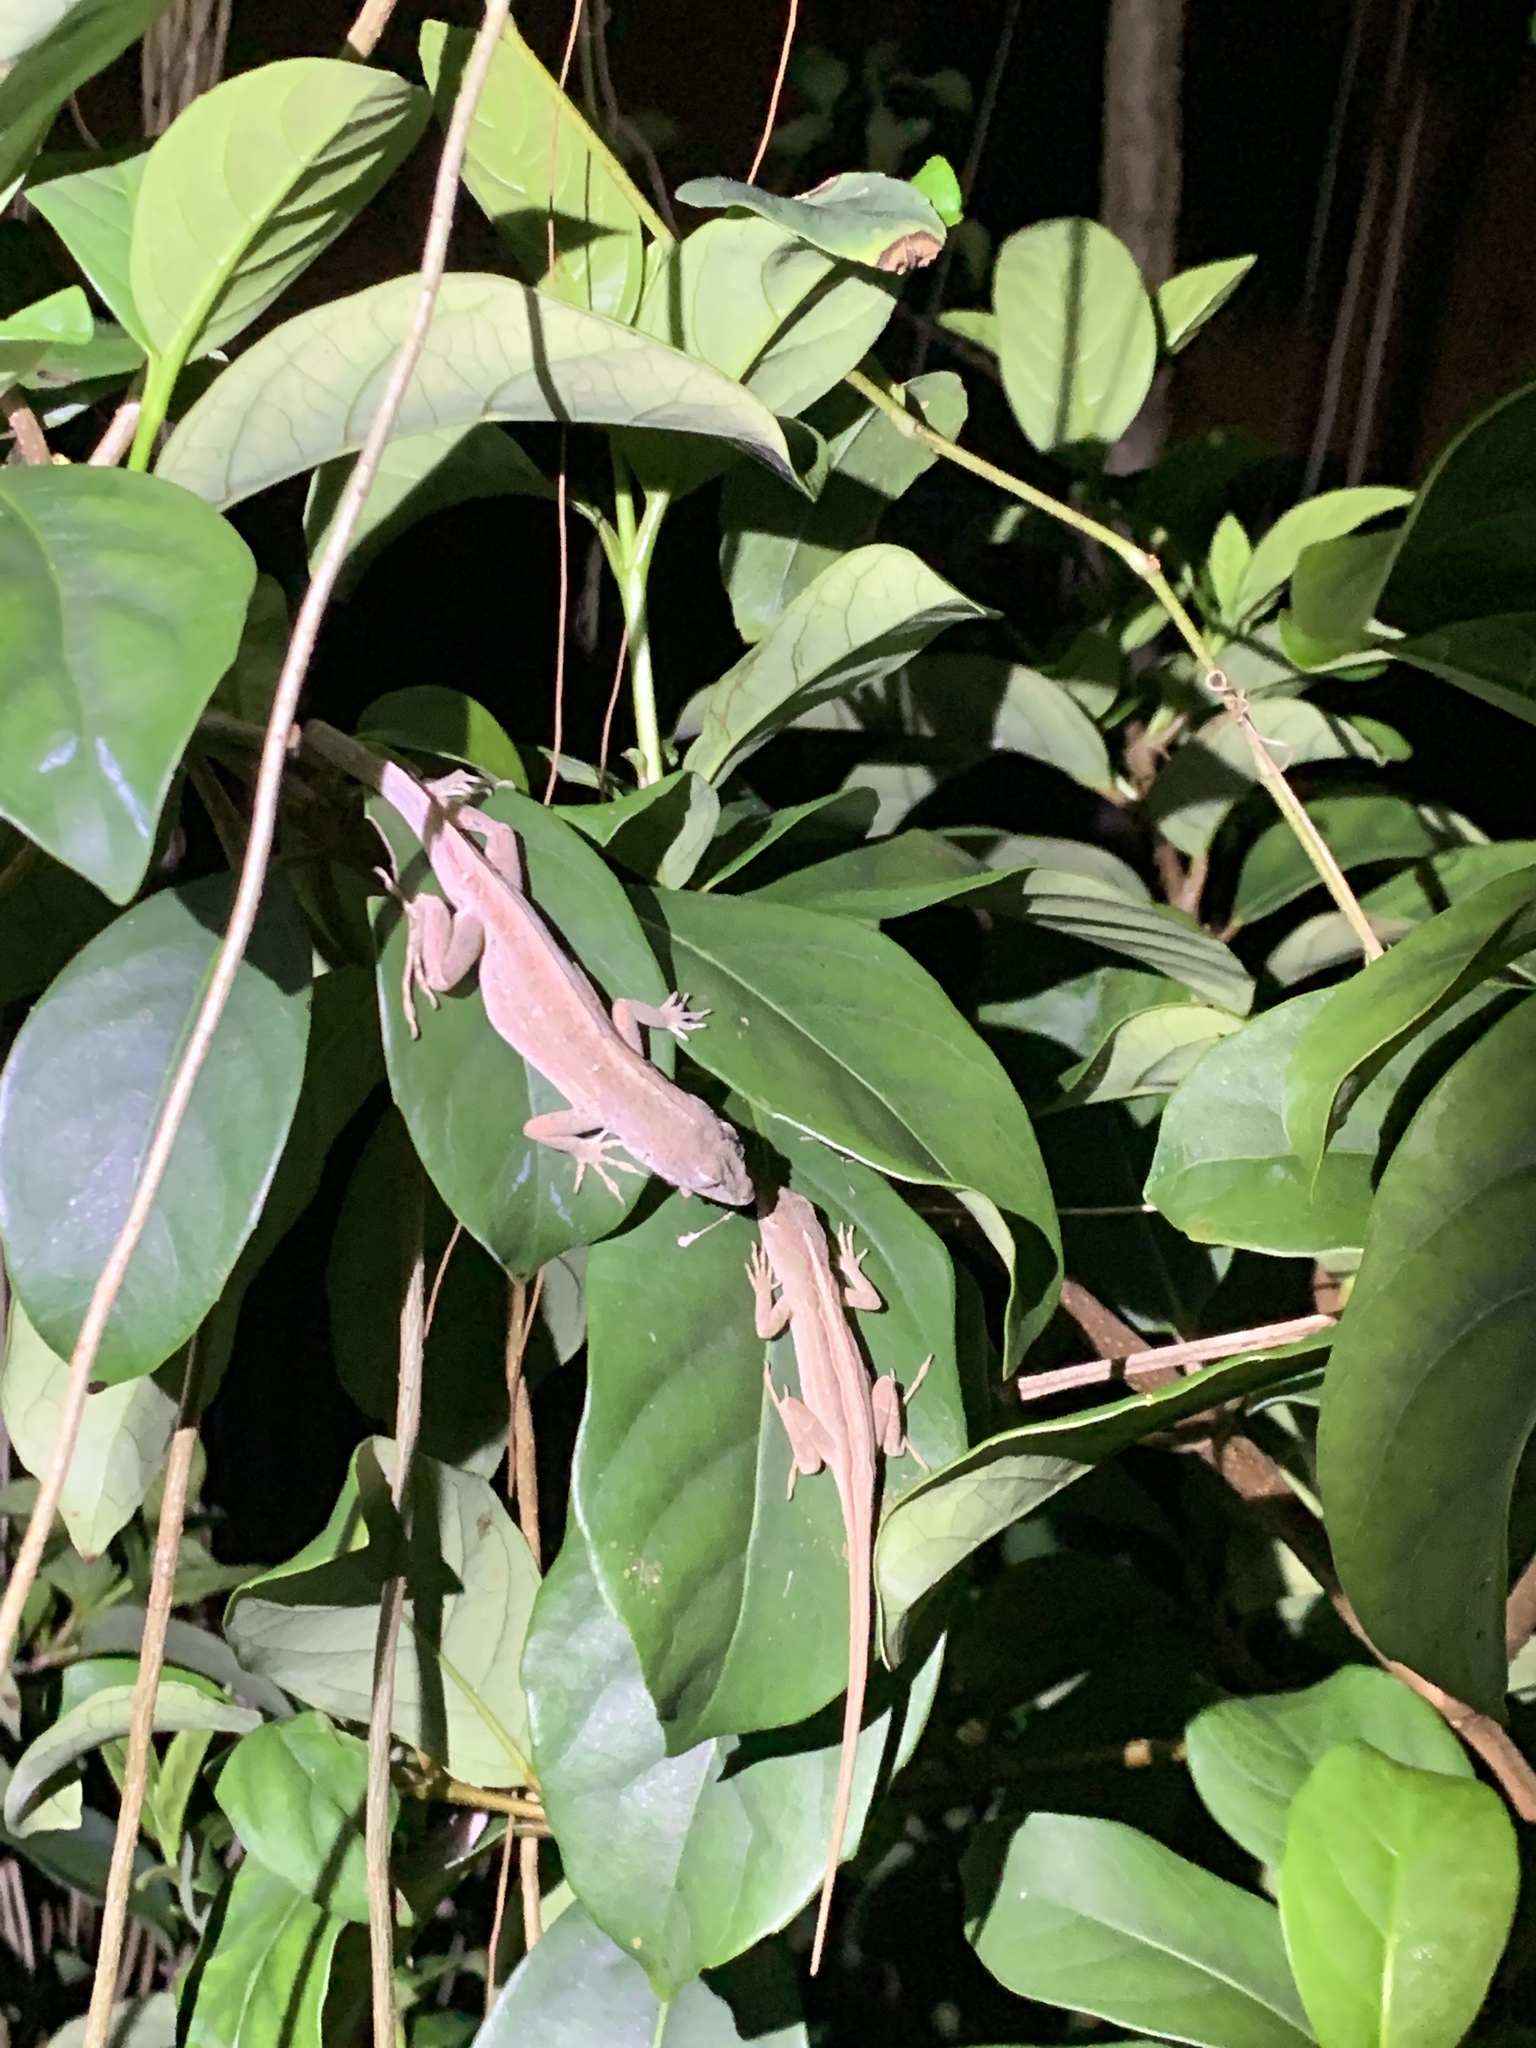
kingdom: Animalia
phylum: Chordata
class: Squamata
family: Dactyloidae
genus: Anolis
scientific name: Anolis sagrei
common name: Brown anole
